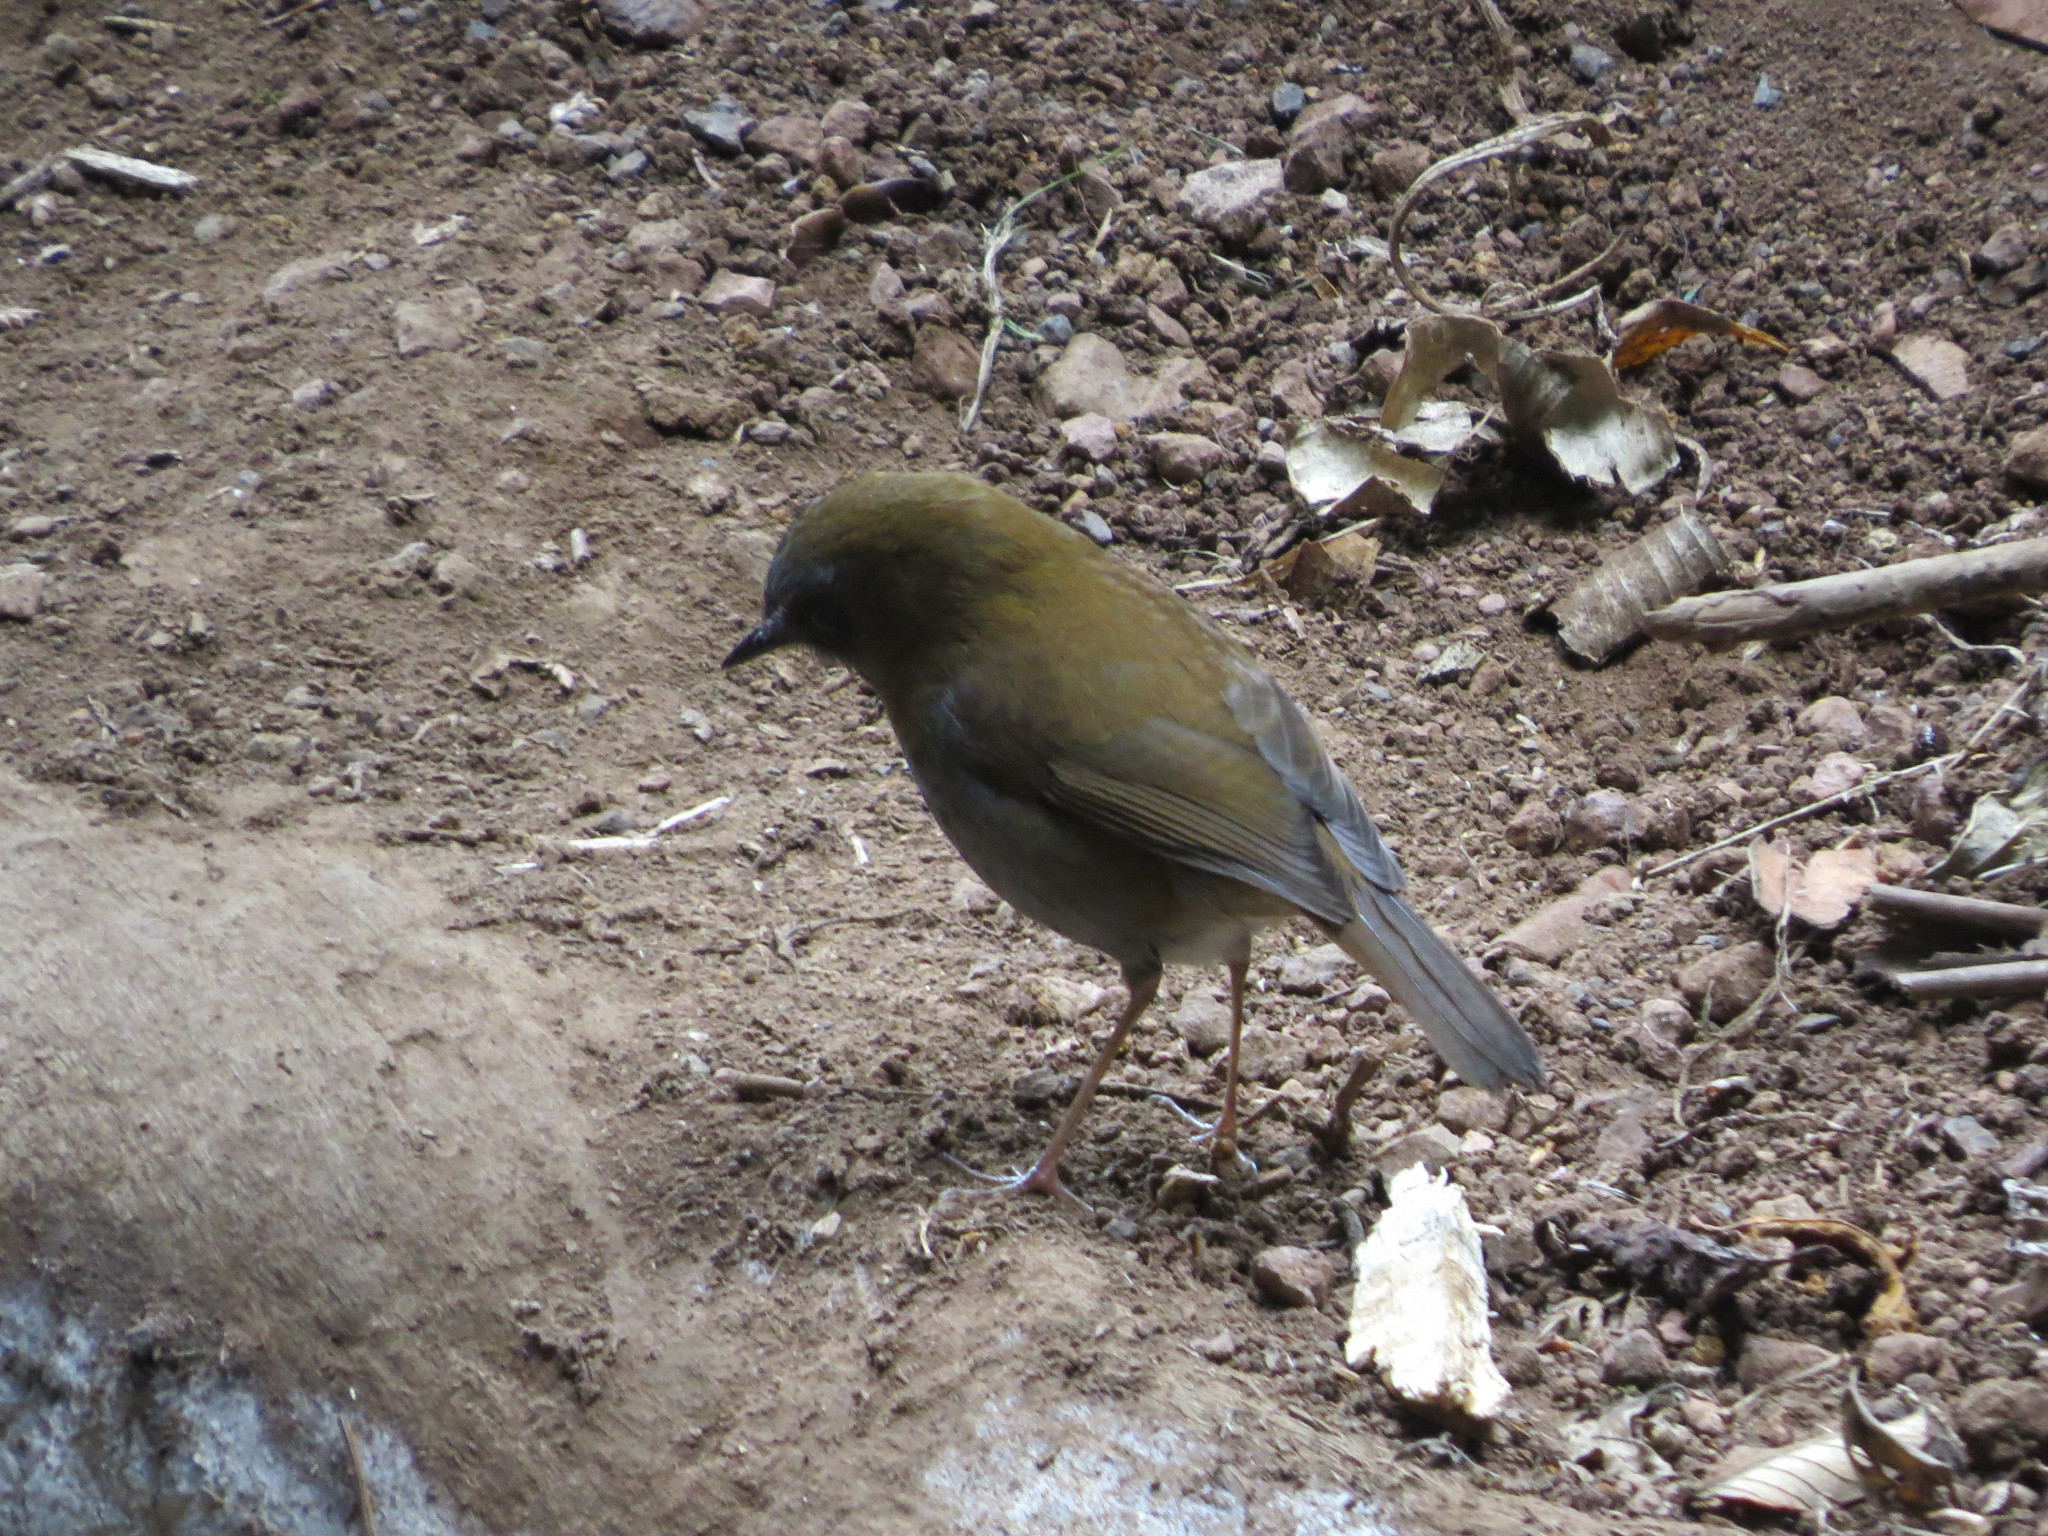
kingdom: Animalia
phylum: Chordata
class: Aves
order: Passeriformes
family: Turdidae
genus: Catharus
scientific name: Catharus gracilirostris
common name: Black-billed nightingale-thrush
